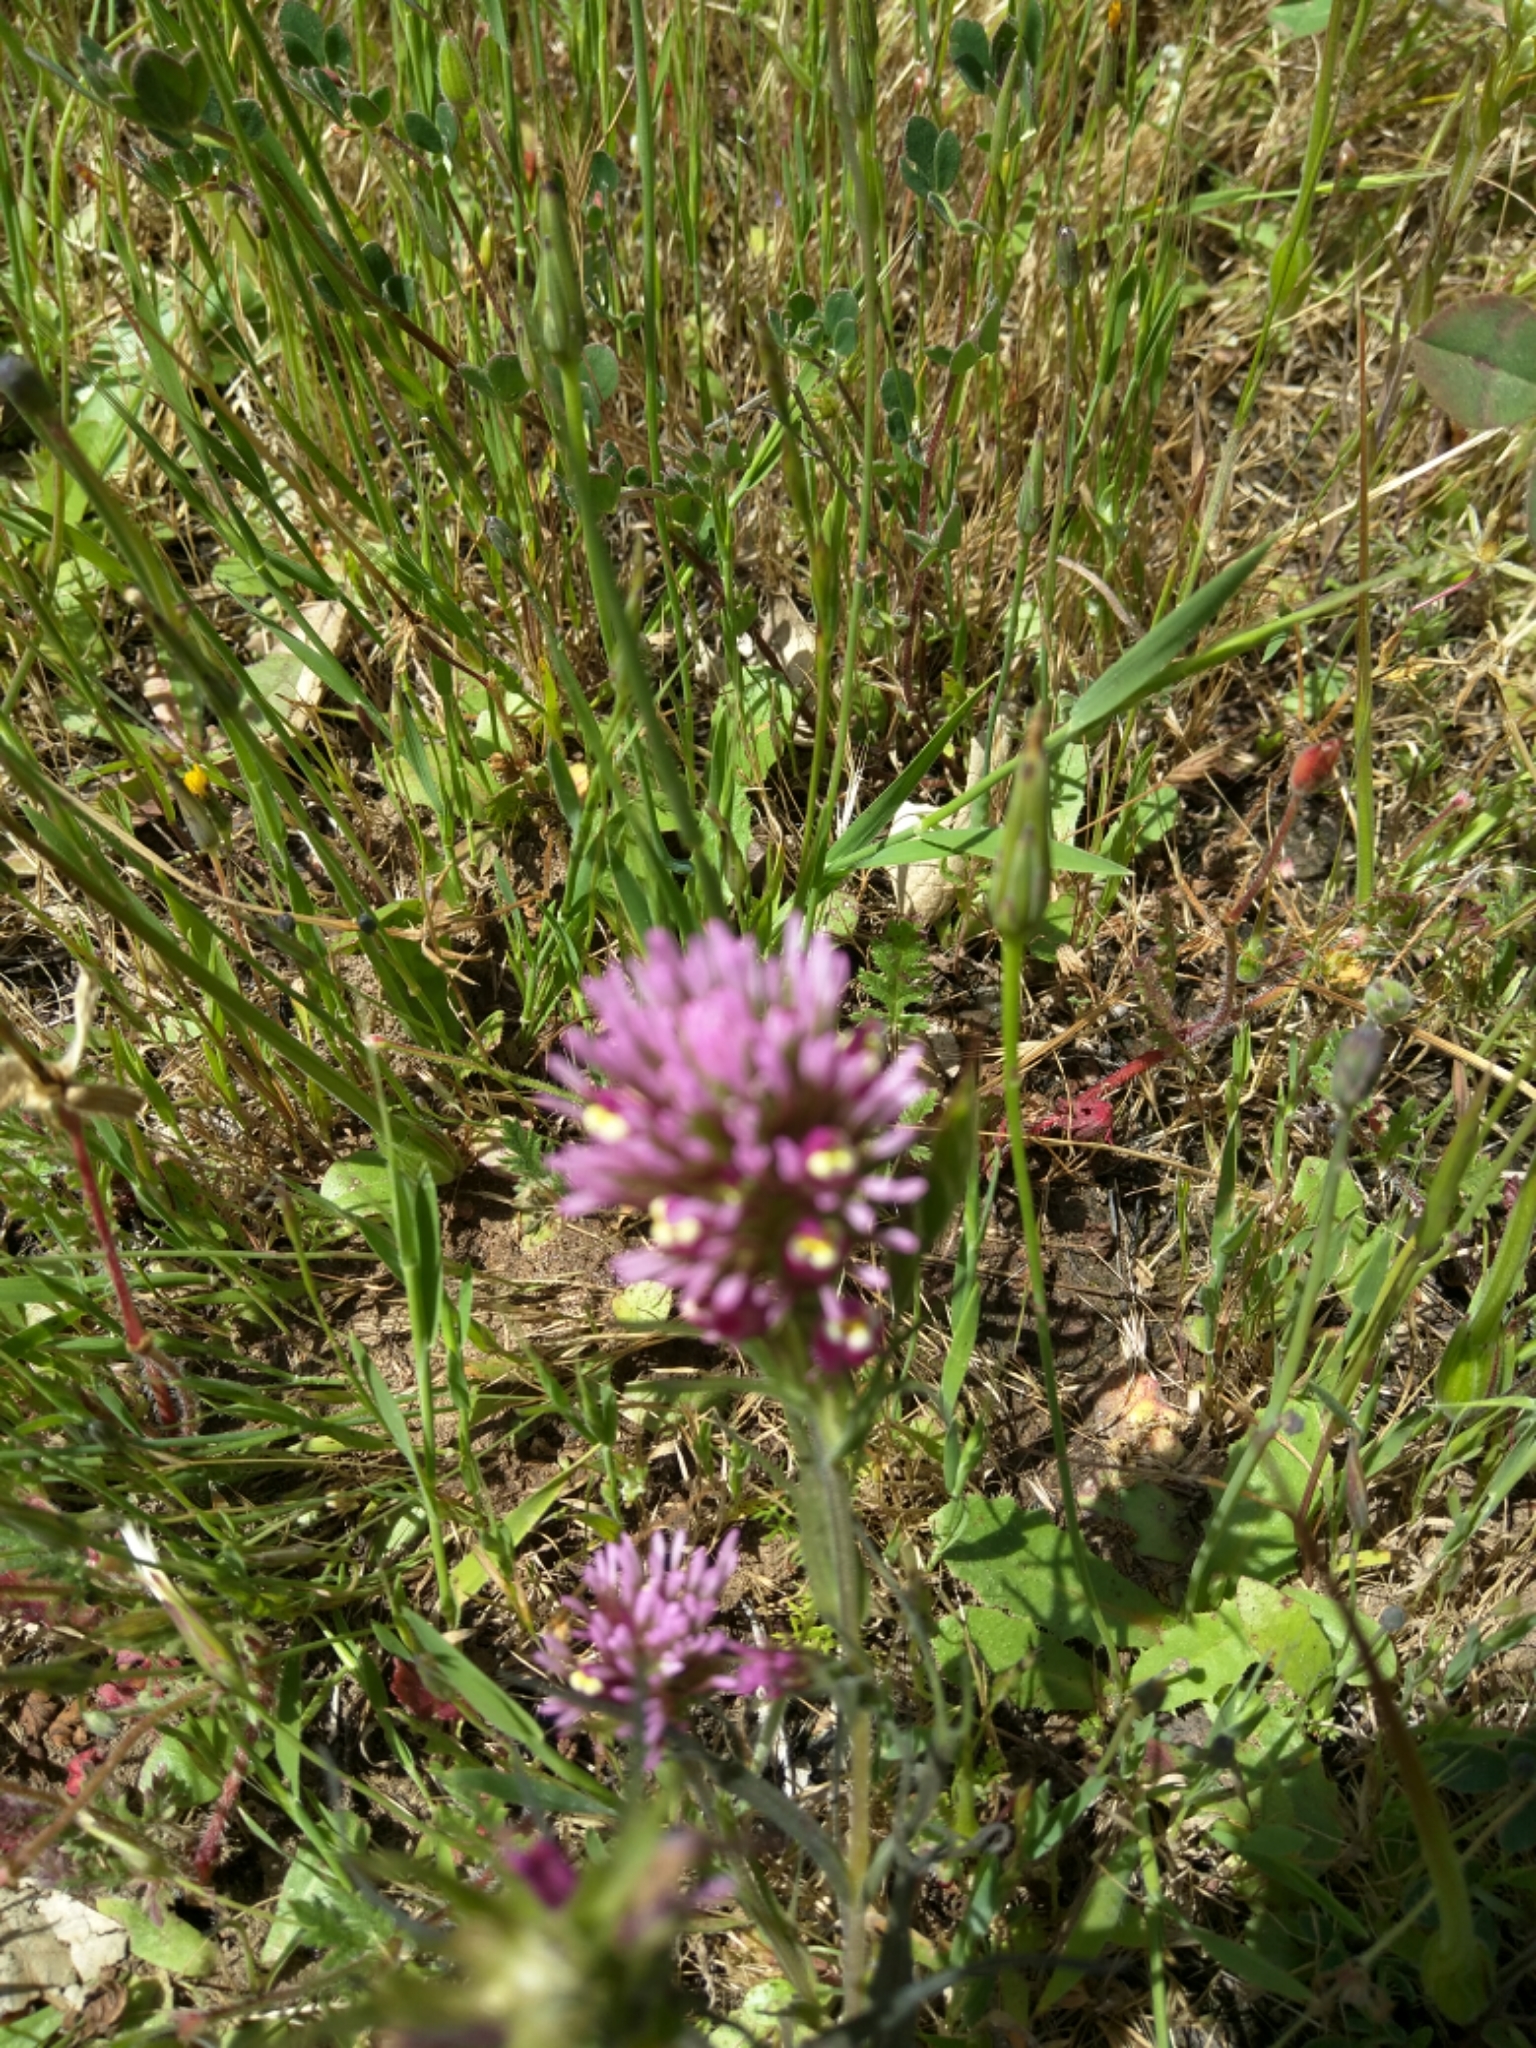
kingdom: Plantae
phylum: Tracheophyta
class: Magnoliopsida
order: Lamiales
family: Orobanchaceae
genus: Castilleja
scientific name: Castilleja
